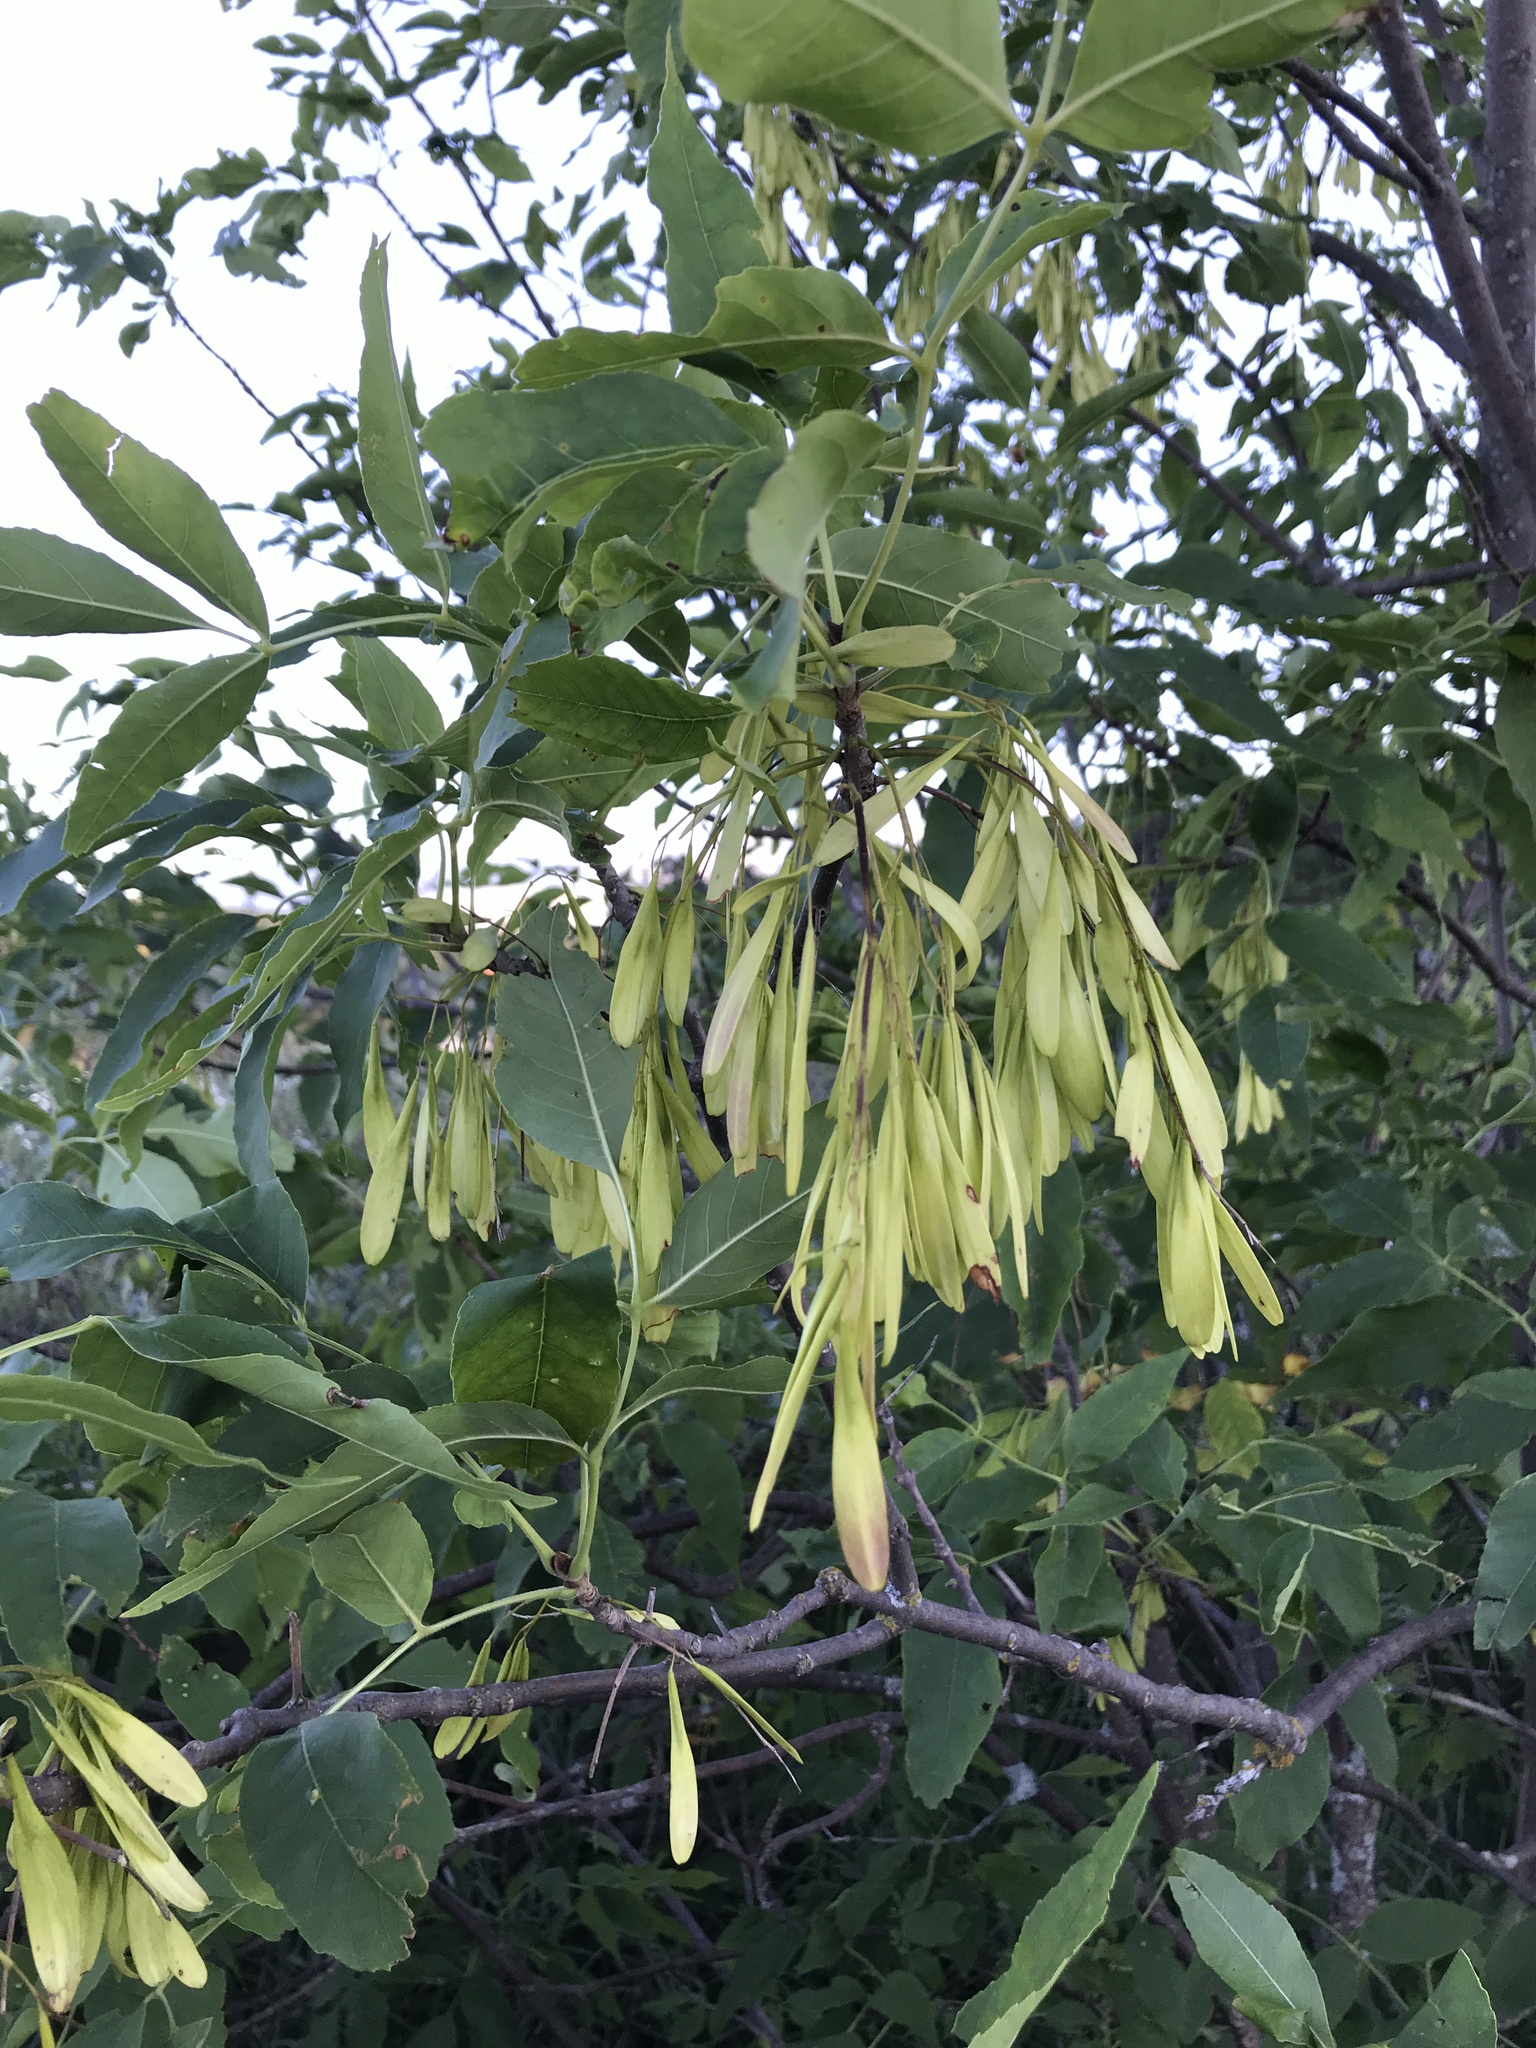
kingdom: Plantae
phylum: Tracheophyta
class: Magnoliopsida
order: Lamiales
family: Oleaceae
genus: Fraxinus
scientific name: Fraxinus pennsylvanica
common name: Green ash
